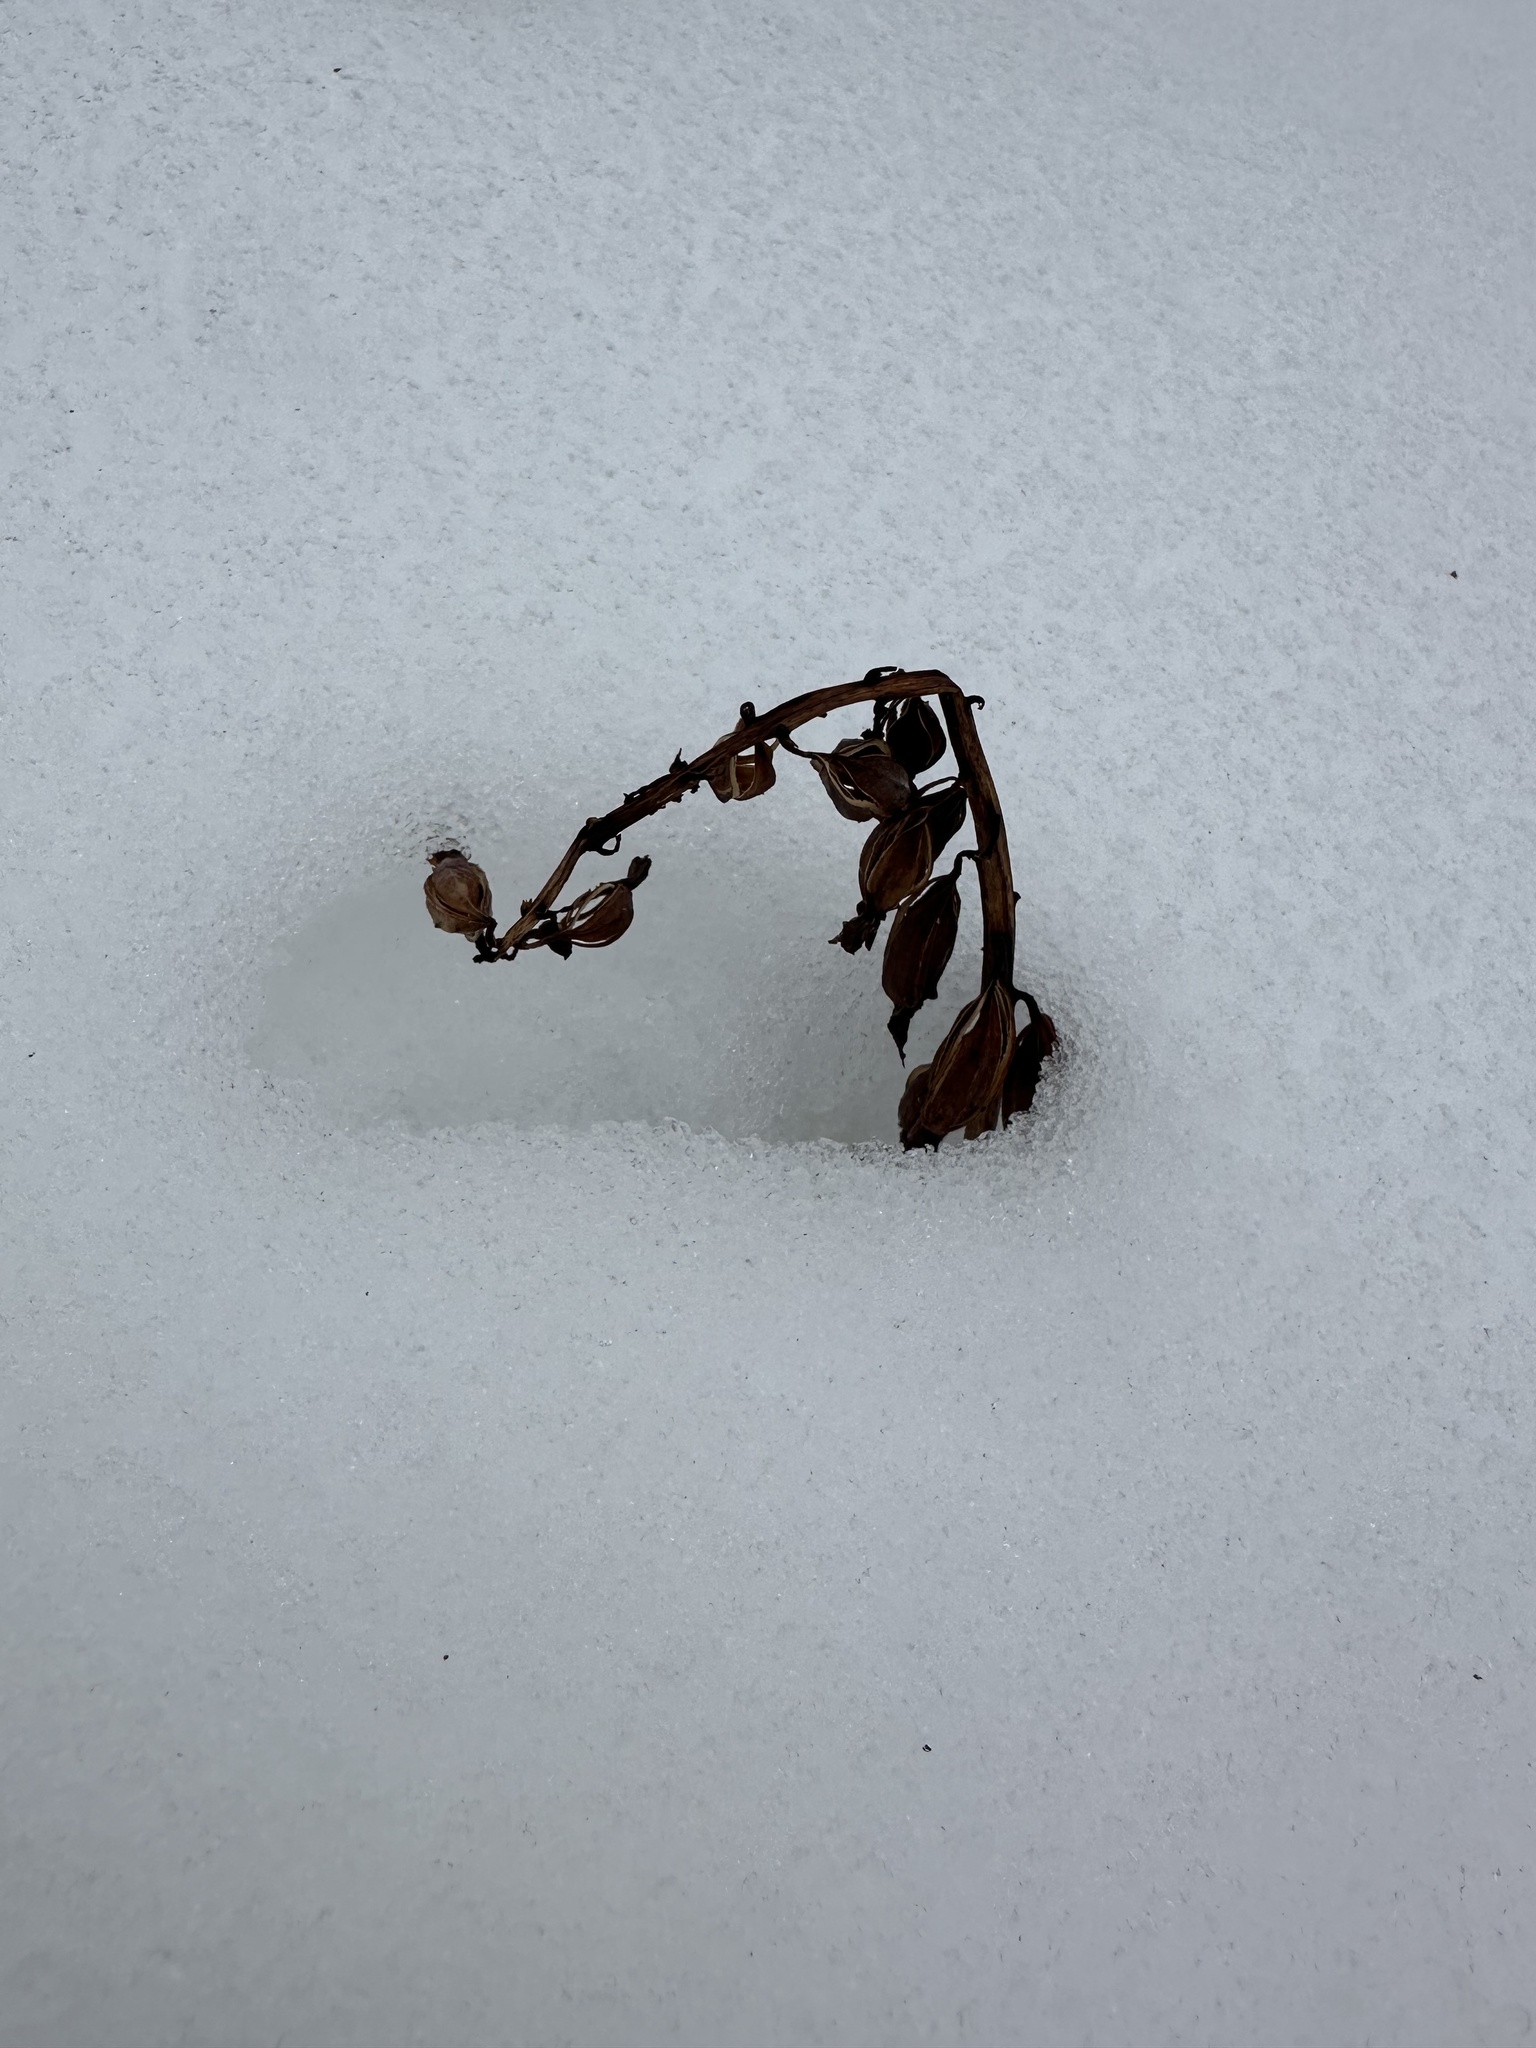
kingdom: Plantae
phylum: Tracheophyta
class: Liliopsida
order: Asparagales
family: Orchidaceae
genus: Corallorhiza
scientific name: Corallorhiza maculata
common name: Spotted coralroot
